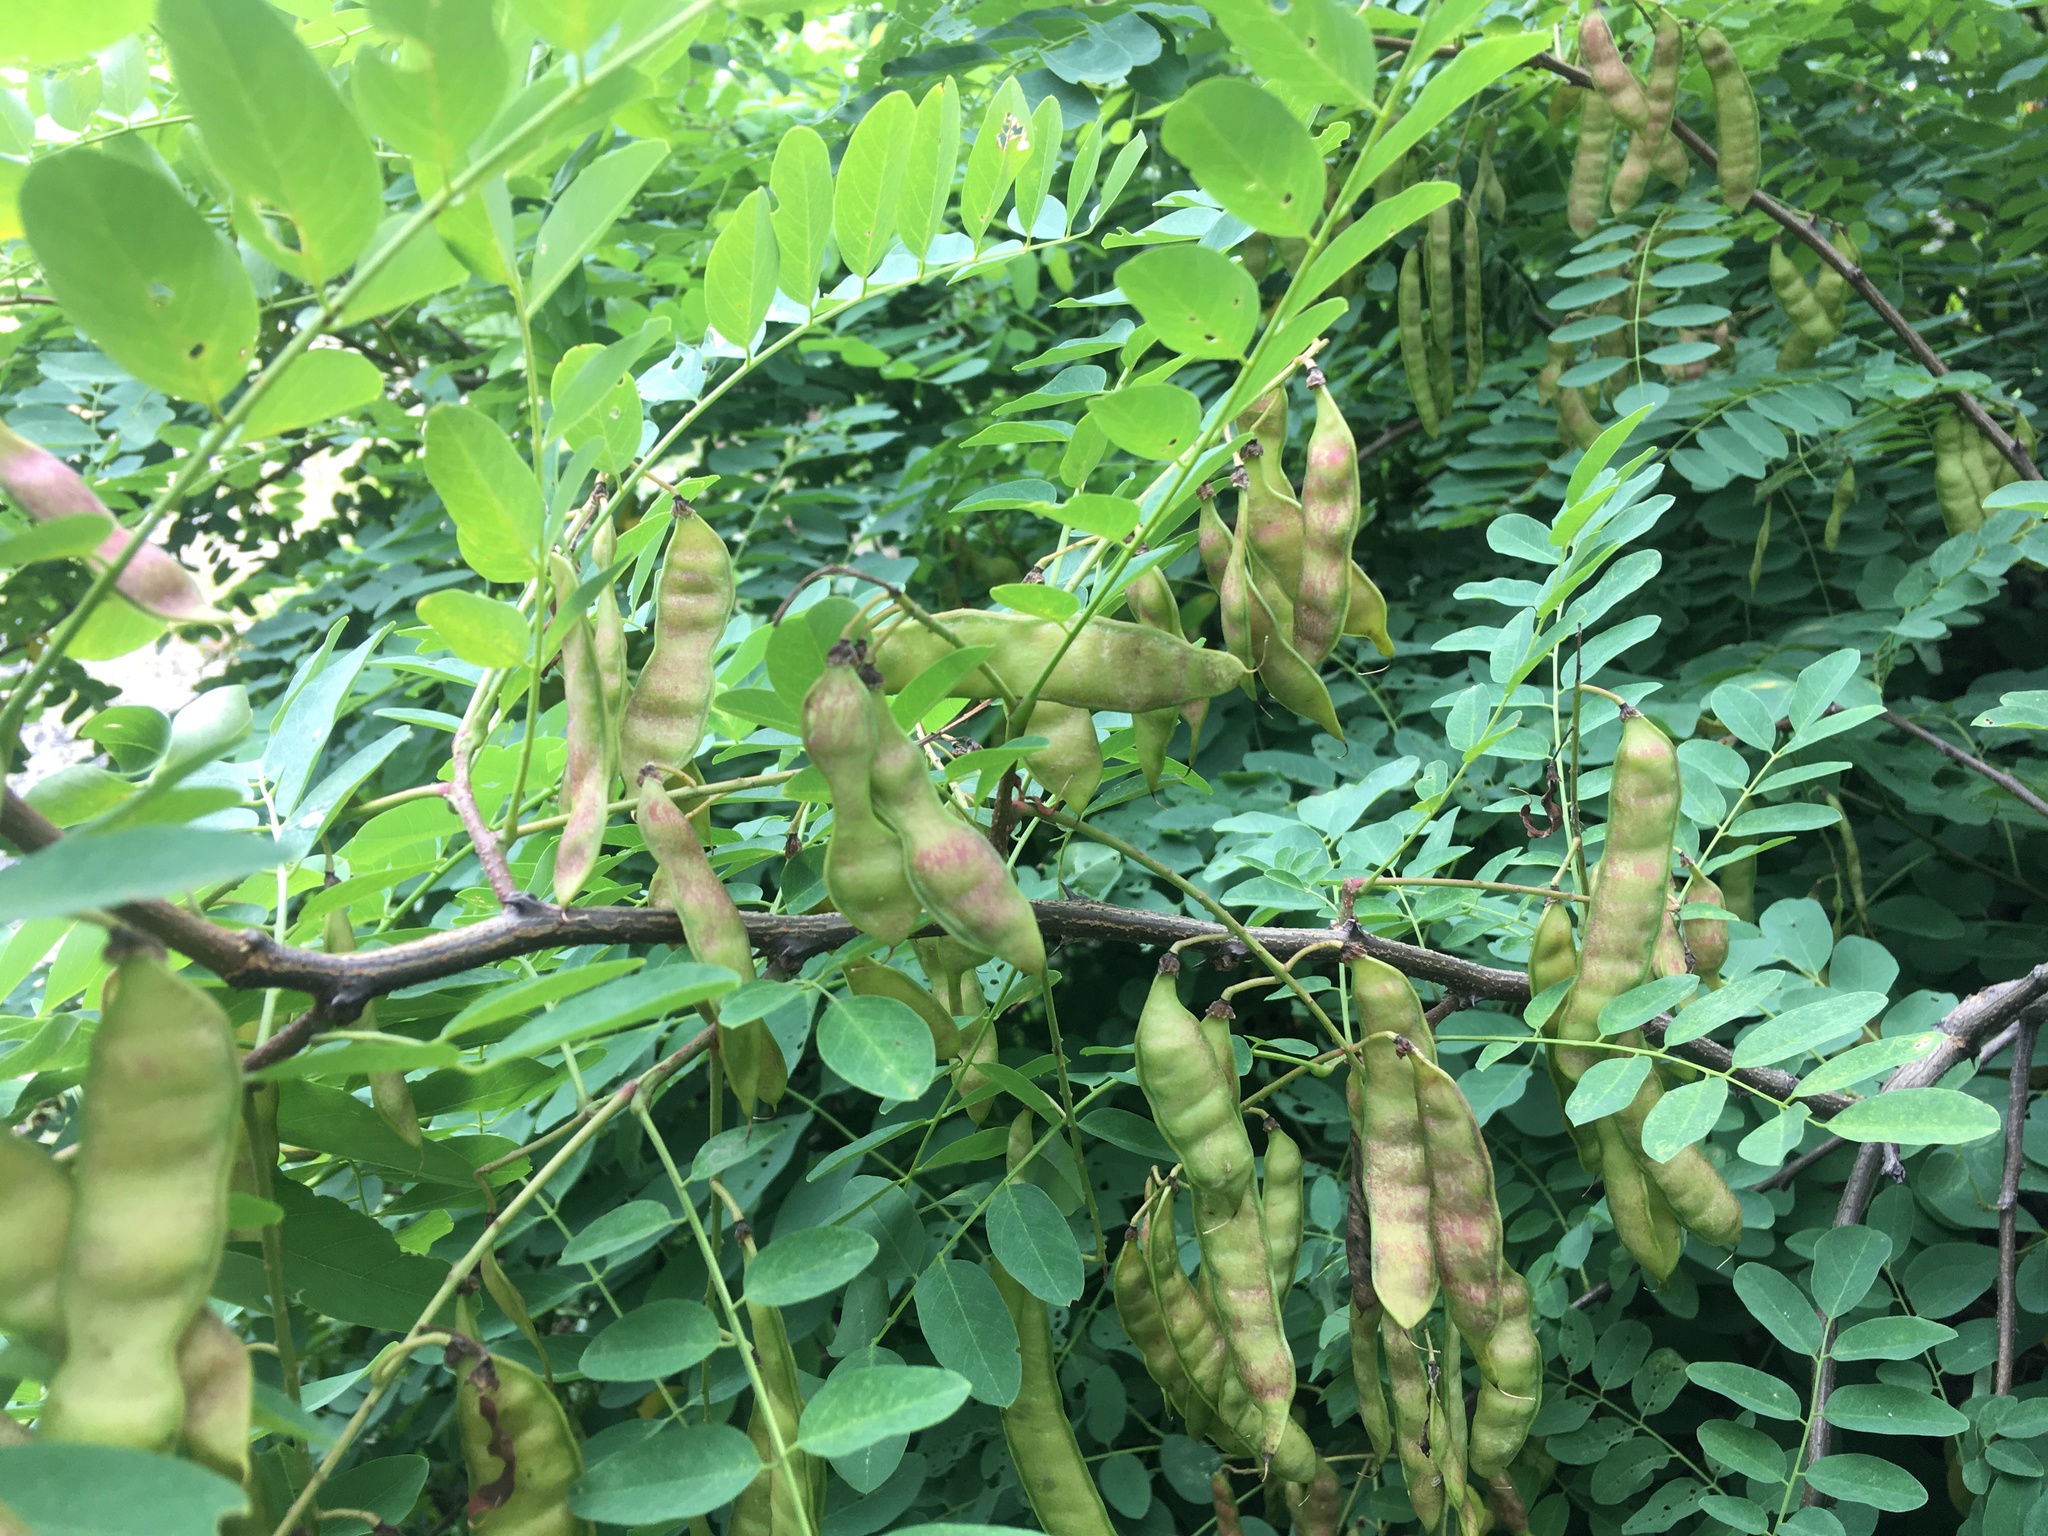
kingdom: Plantae
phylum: Tracheophyta
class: Magnoliopsida
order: Fabales
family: Fabaceae
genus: Robinia
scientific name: Robinia pseudoacacia
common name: Black locust
